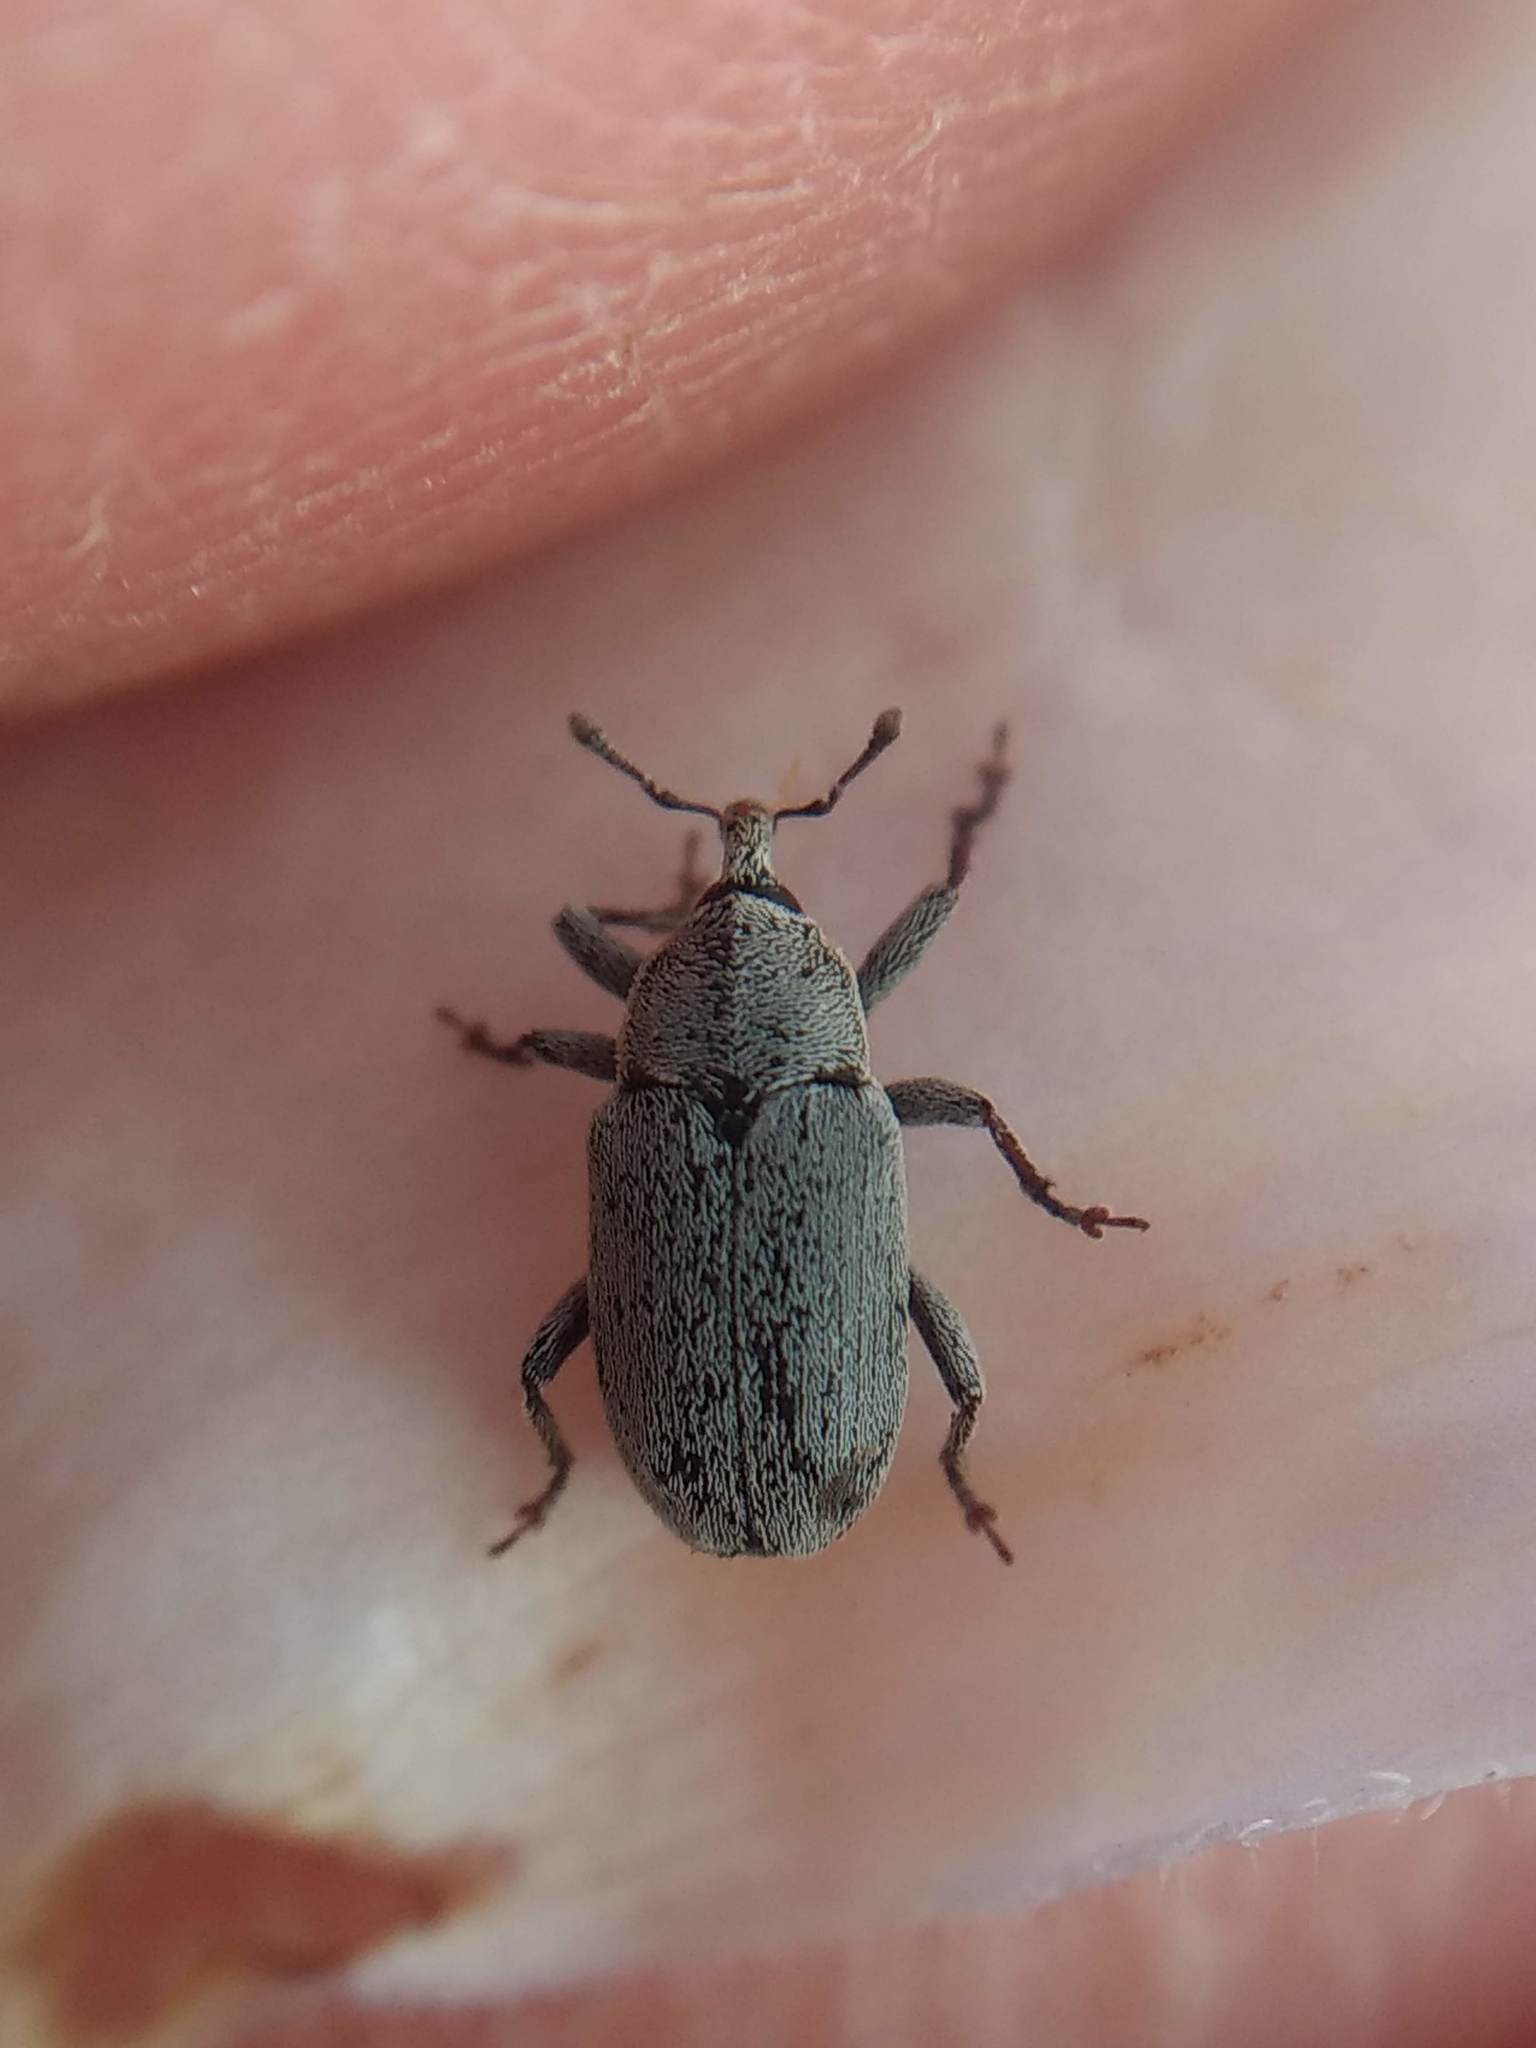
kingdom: Animalia
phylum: Arthropoda
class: Insecta
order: Coleoptera
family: Curculionidae
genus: Trichobaris
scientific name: Trichobaris compacta
